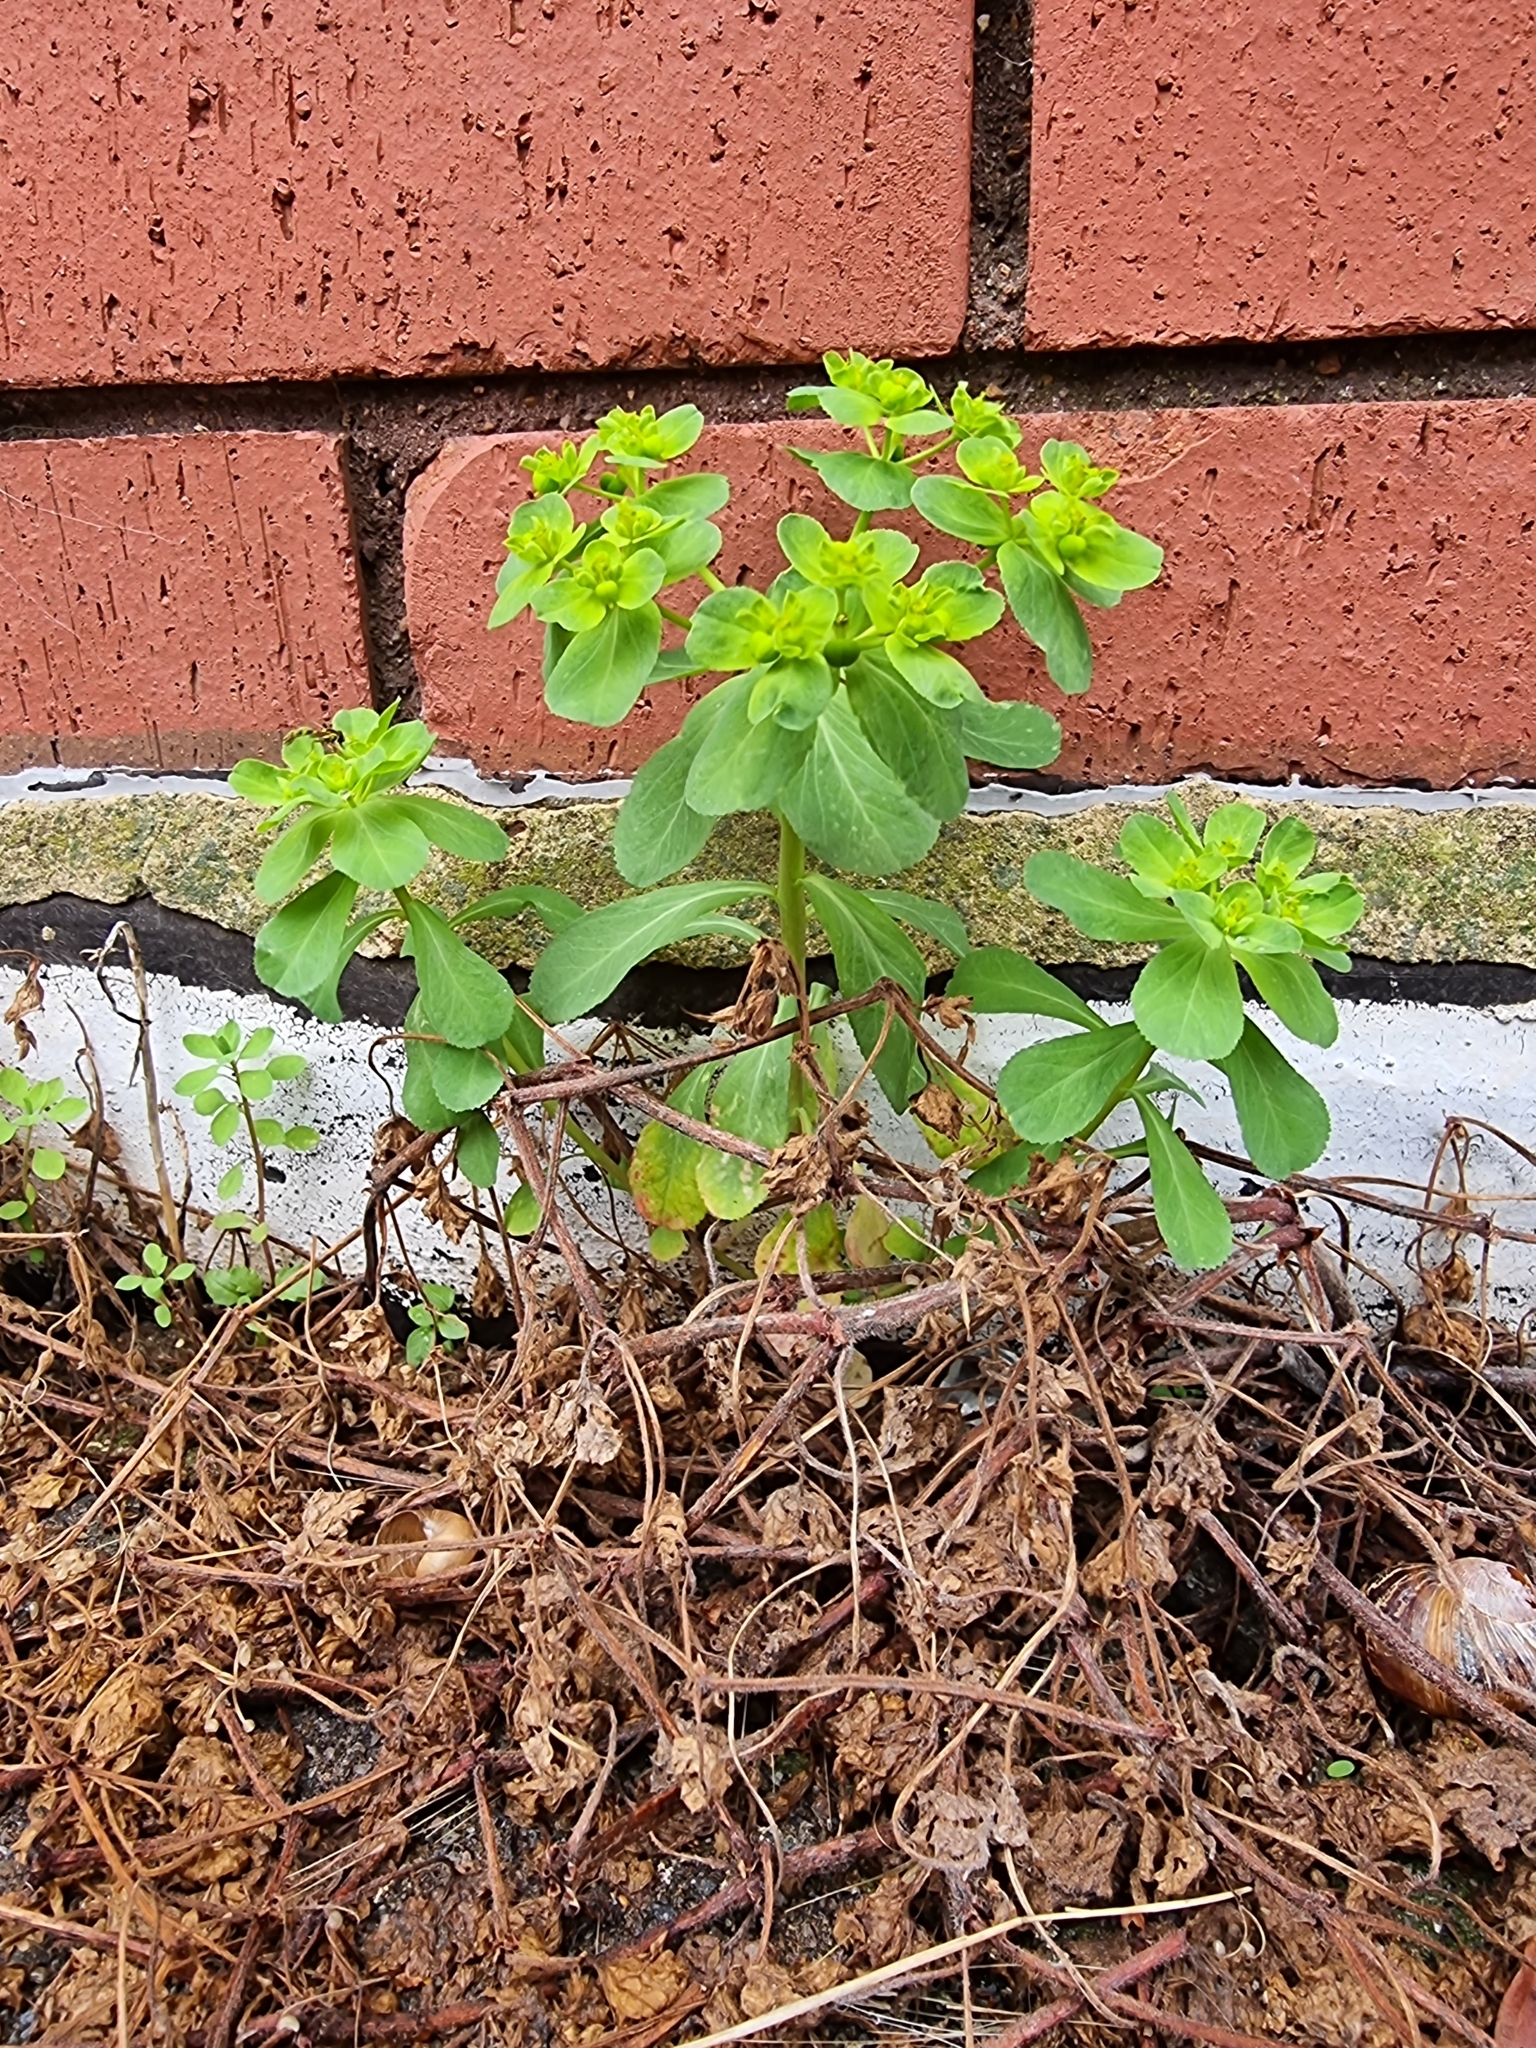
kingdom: Plantae
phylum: Tracheophyta
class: Magnoliopsida
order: Malpighiales
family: Euphorbiaceae
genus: Euphorbia
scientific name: Euphorbia helioscopia
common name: Sun spurge
